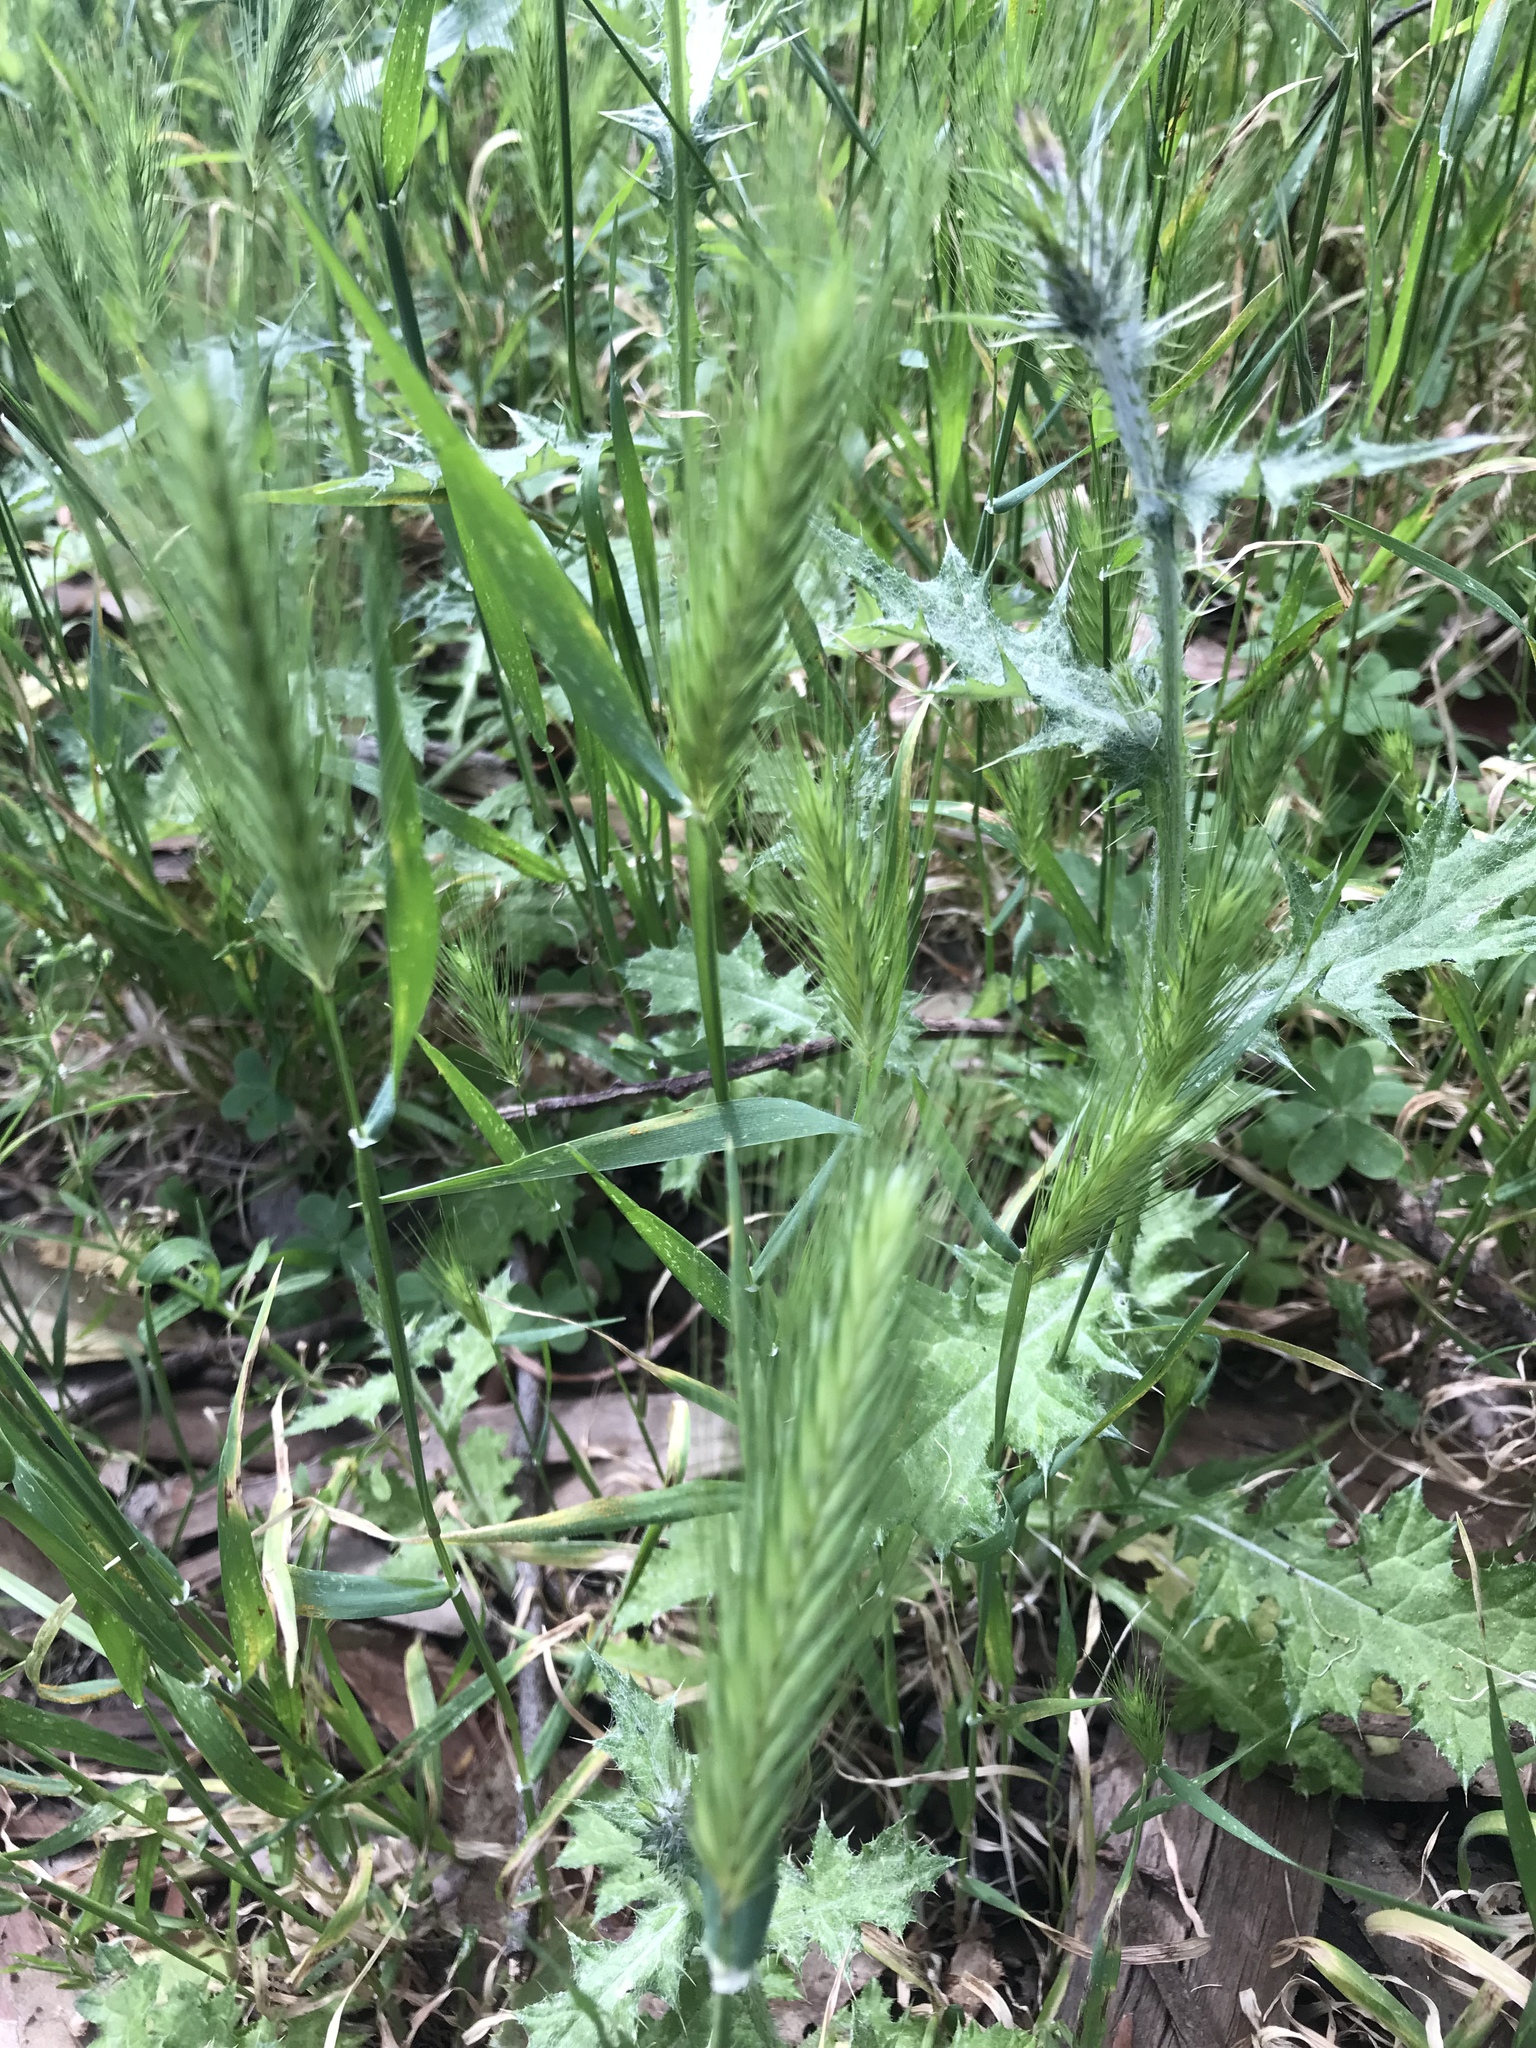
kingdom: Plantae
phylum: Tracheophyta
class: Liliopsida
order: Poales
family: Poaceae
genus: Hordeum
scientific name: Hordeum murinum
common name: Wall barley
